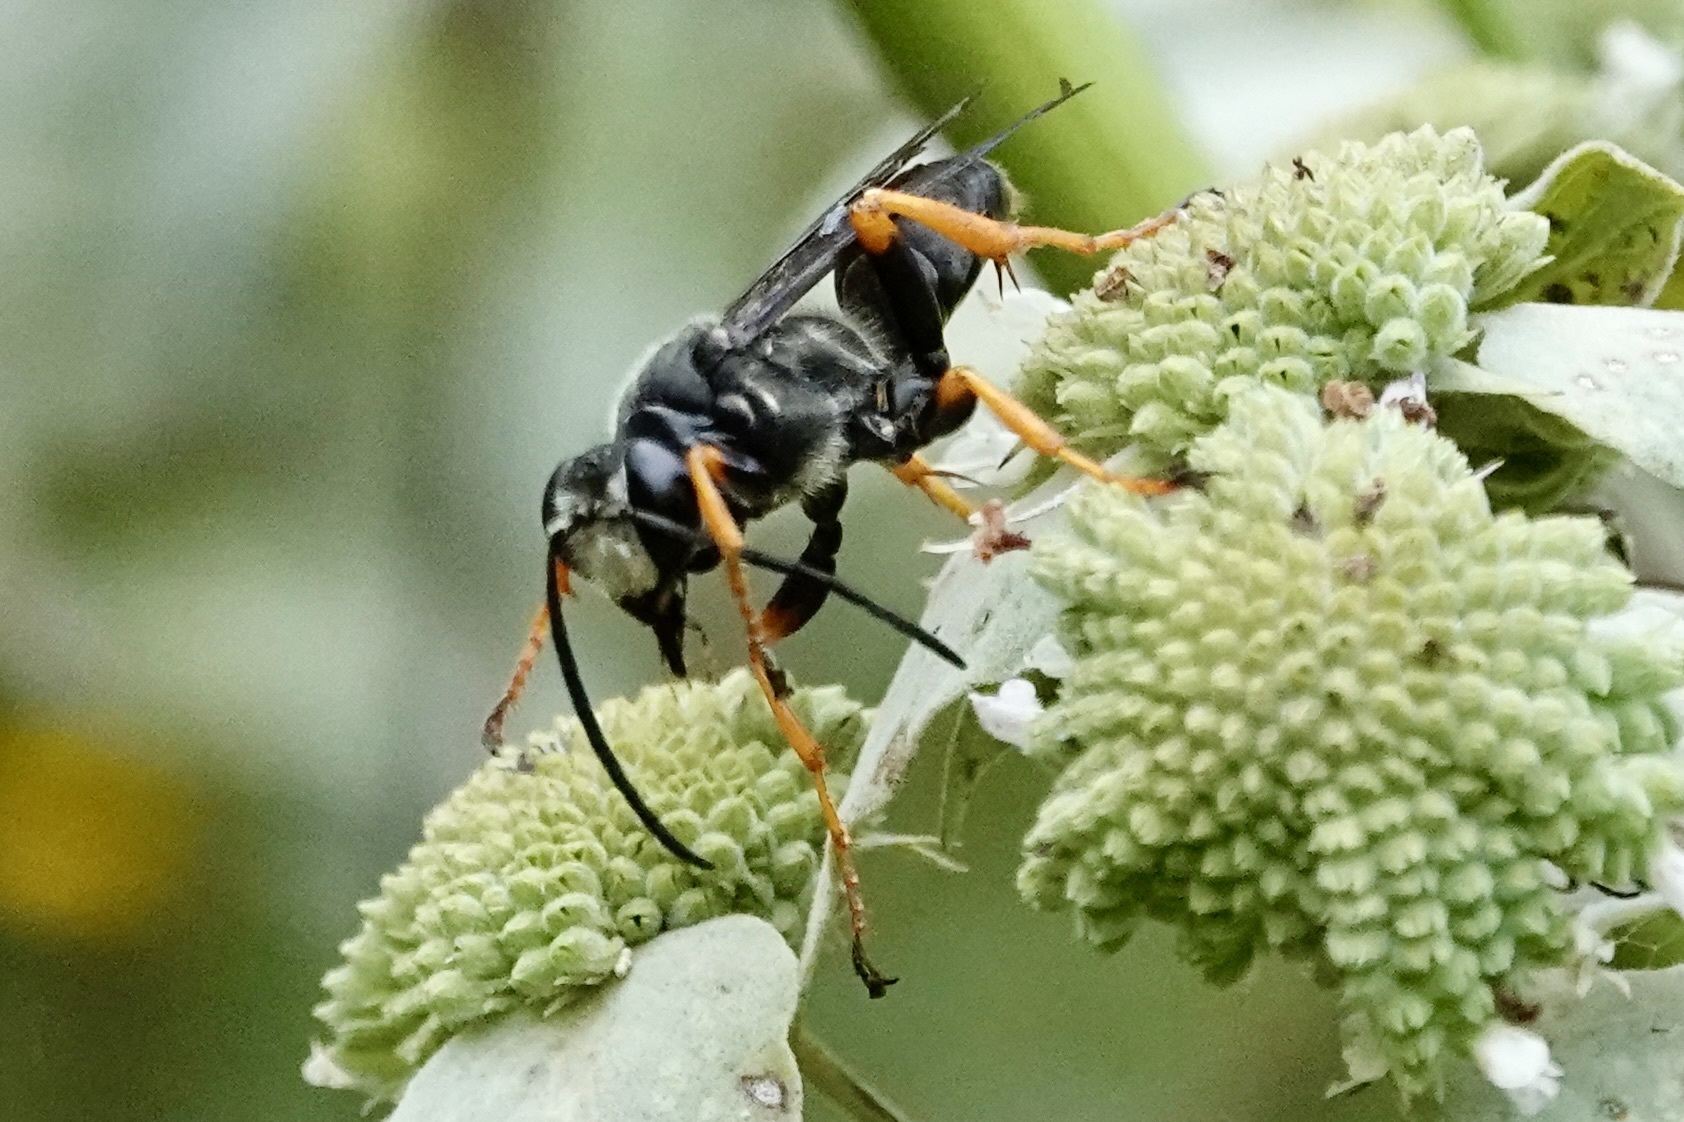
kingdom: Animalia
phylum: Arthropoda
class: Insecta
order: Hymenoptera
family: Sphecidae
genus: Sphex
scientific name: Sphex nudus
